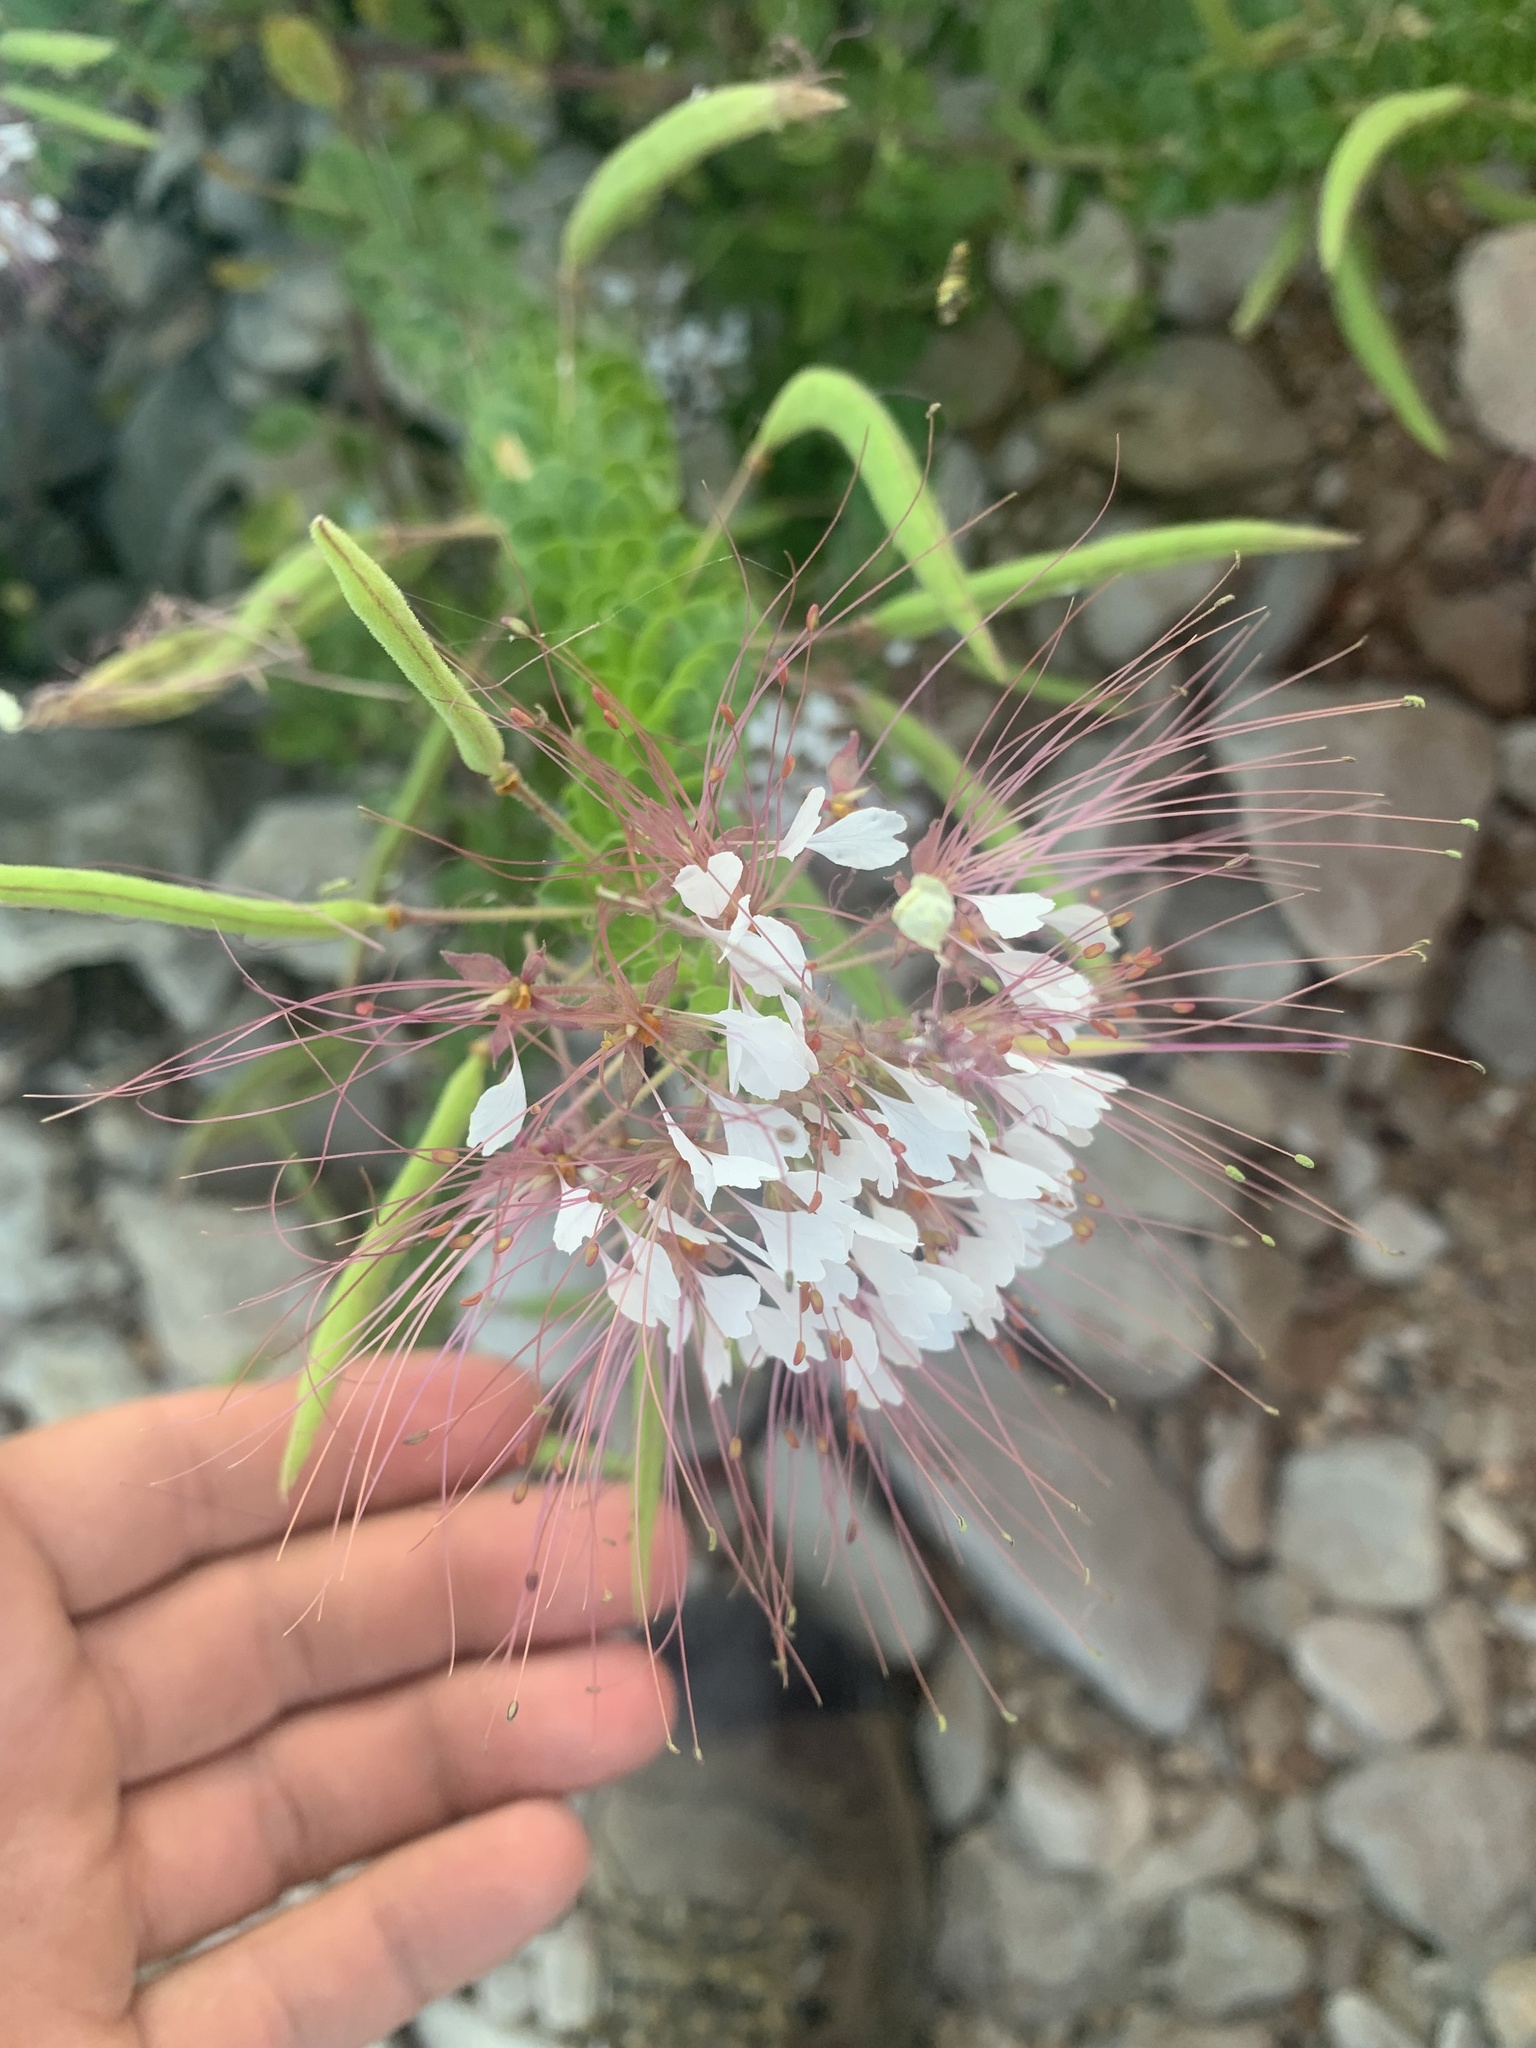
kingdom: Plantae
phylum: Tracheophyta
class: Magnoliopsida
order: Brassicales
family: Cleomaceae
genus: Polanisia
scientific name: Polanisia dodecandra
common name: Clammyweed
